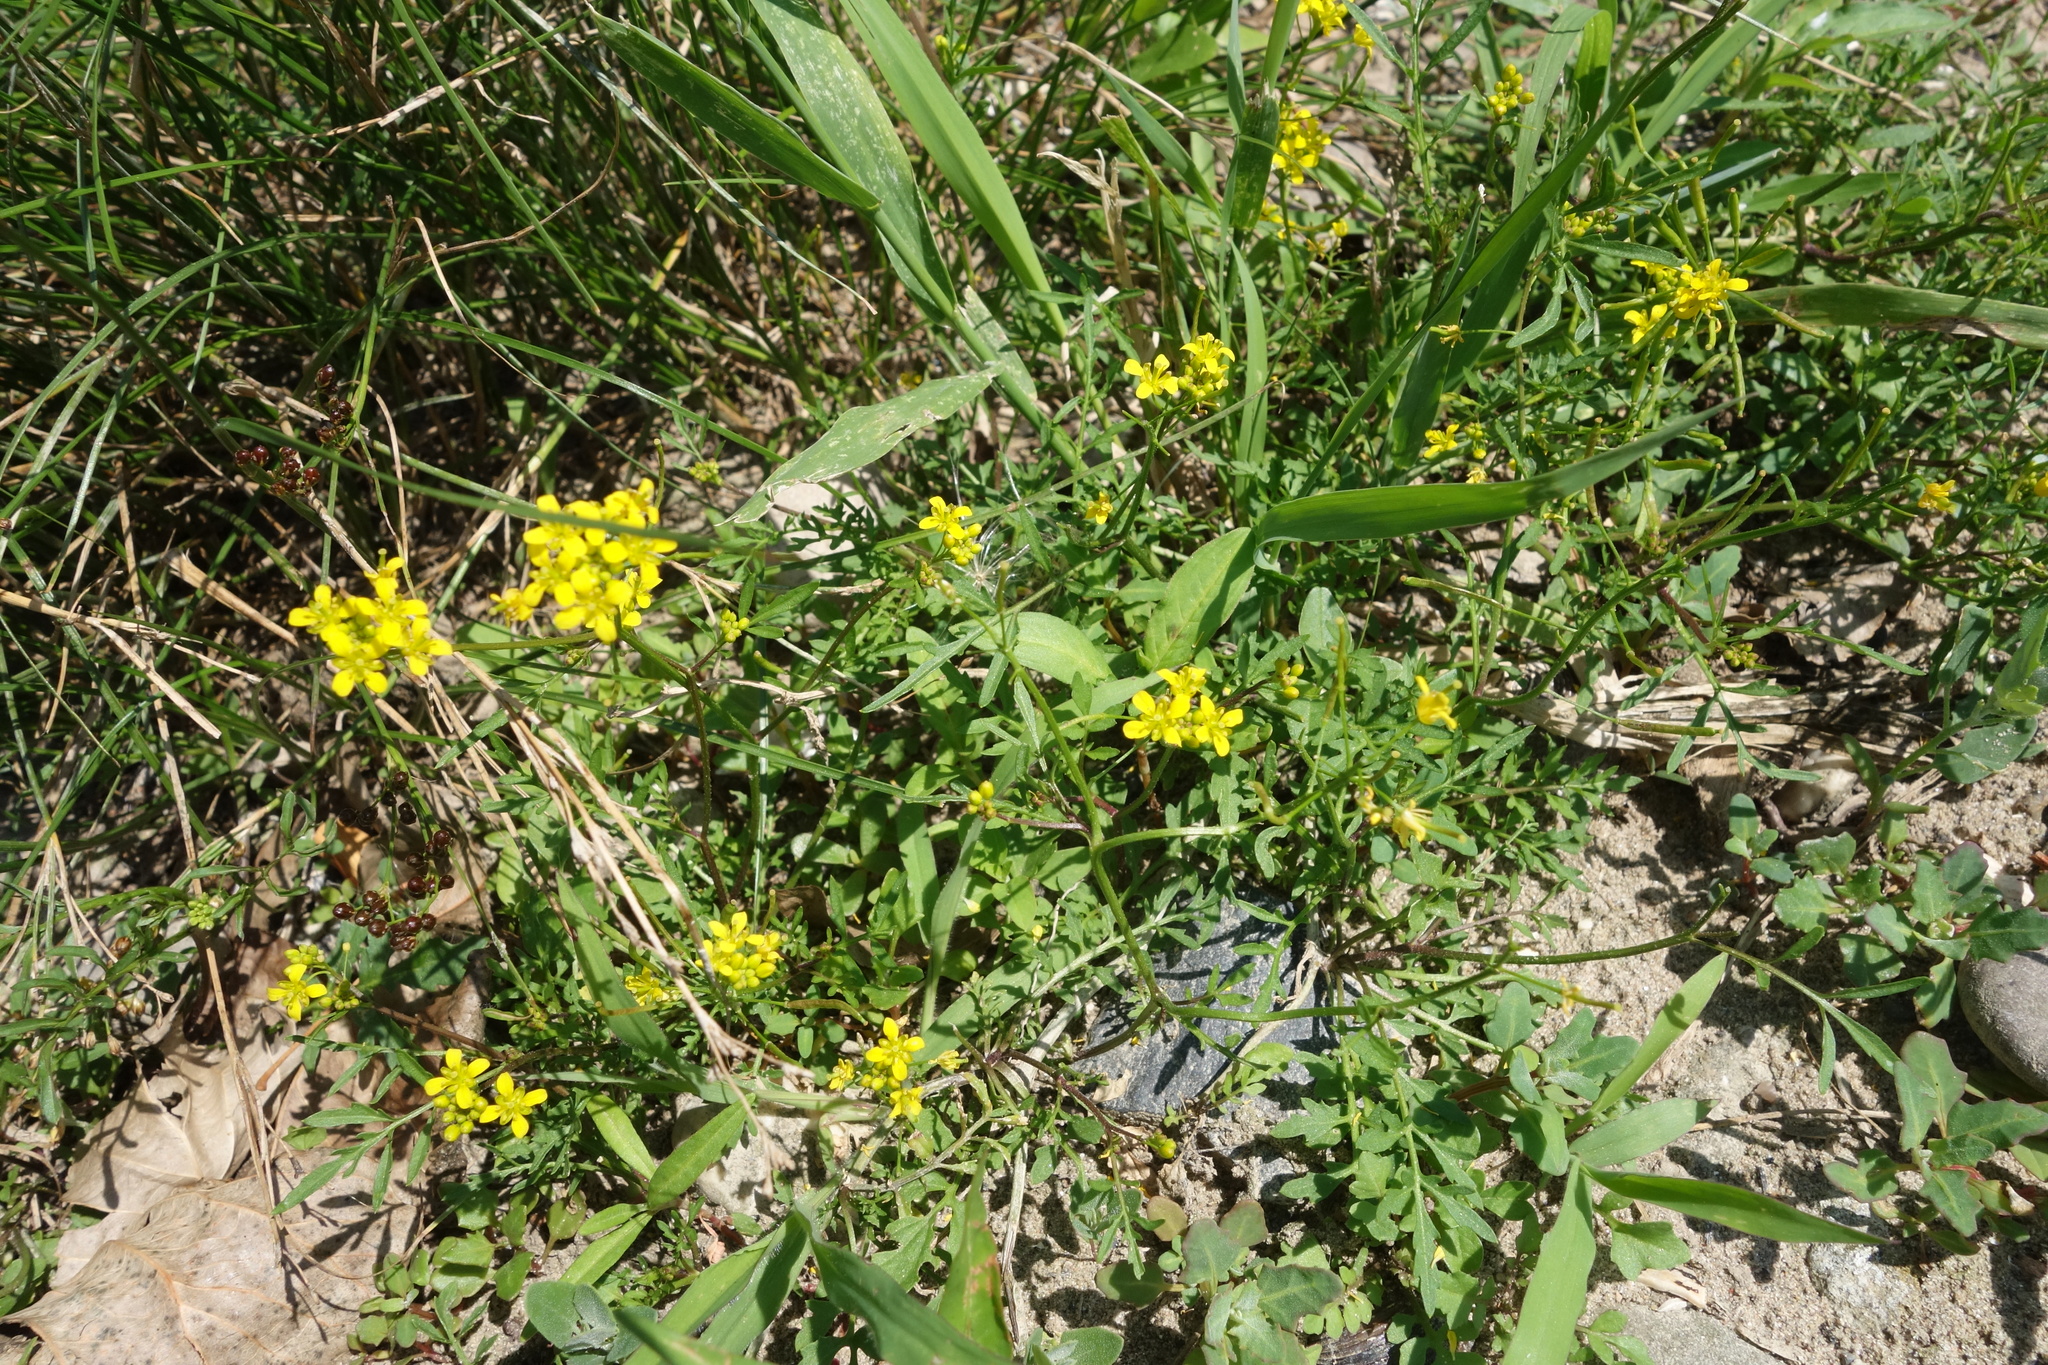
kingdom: Plantae
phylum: Tracheophyta
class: Magnoliopsida
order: Brassicales
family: Brassicaceae
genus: Rorippa
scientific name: Rorippa sylvestris
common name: Creeping yellowcress
